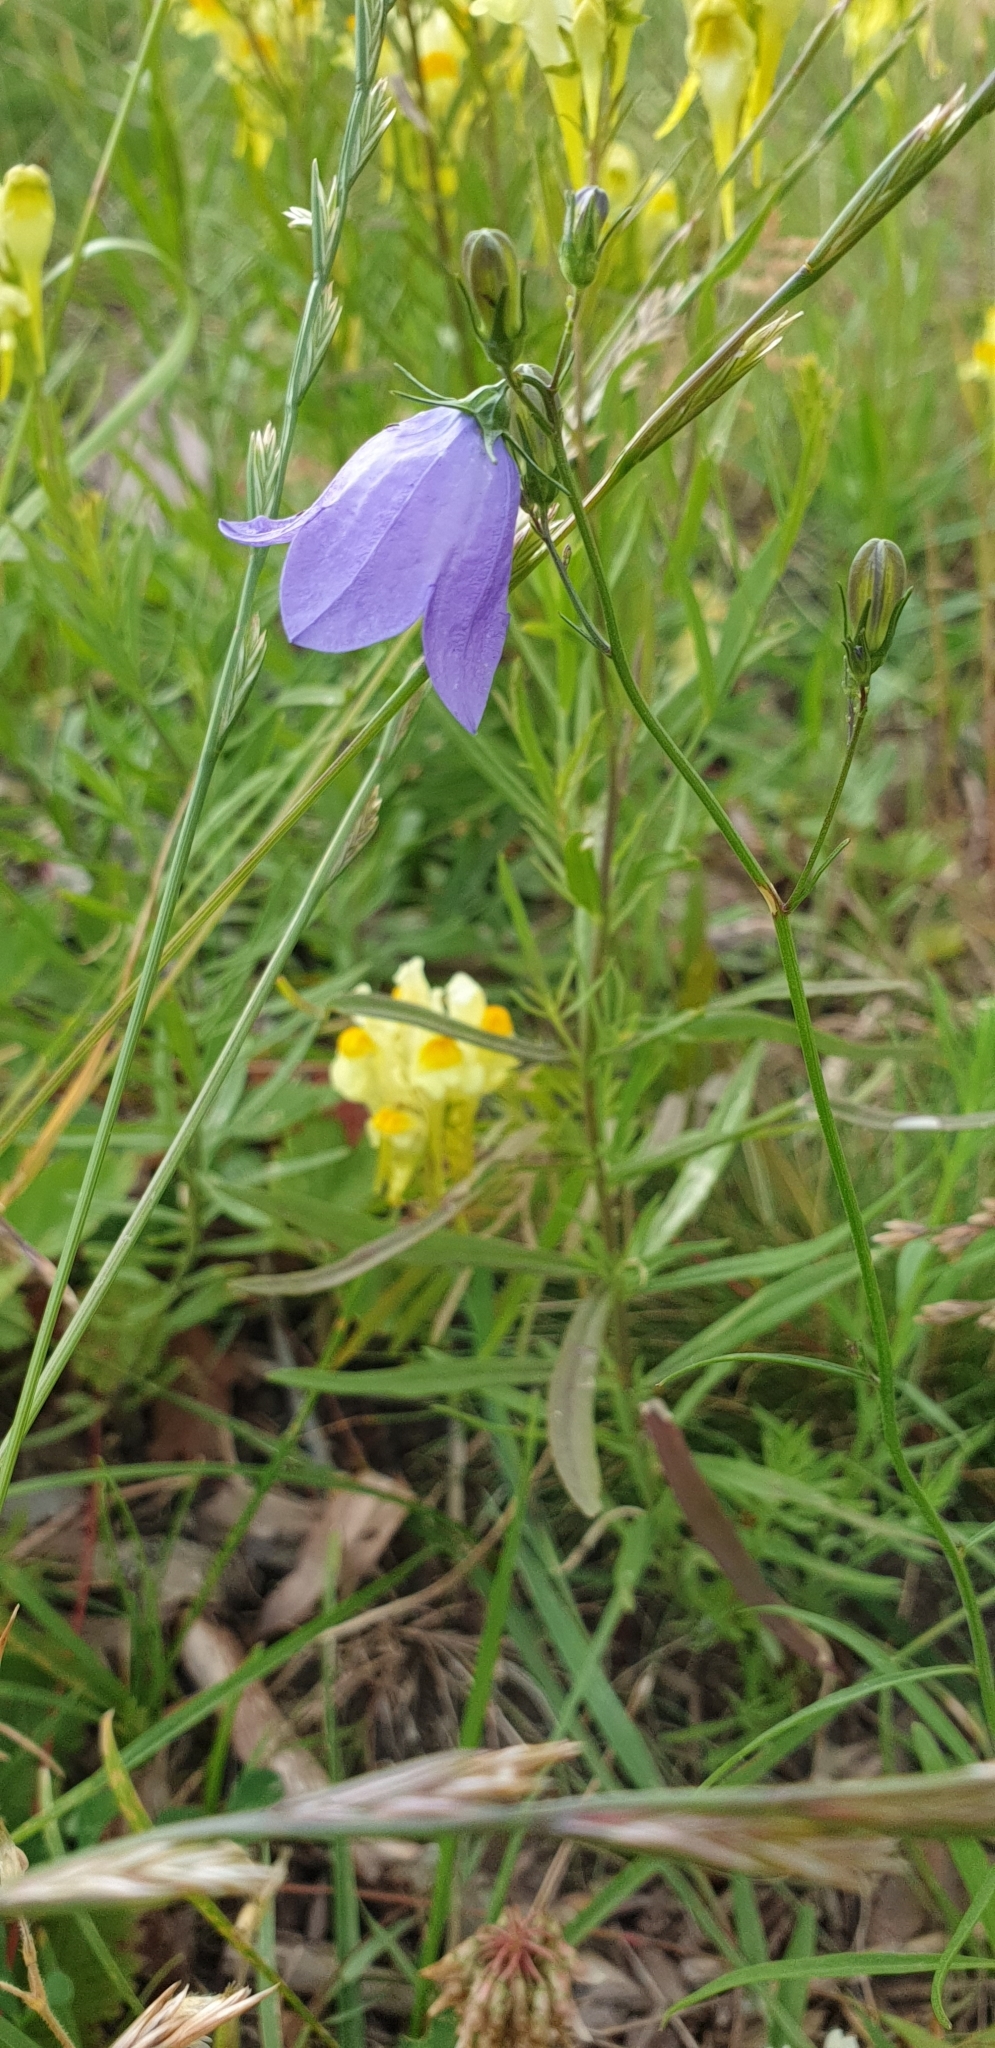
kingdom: Plantae
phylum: Tracheophyta
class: Magnoliopsida
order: Asterales
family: Campanulaceae
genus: Campanula
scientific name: Campanula rotundifolia
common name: Harebell
